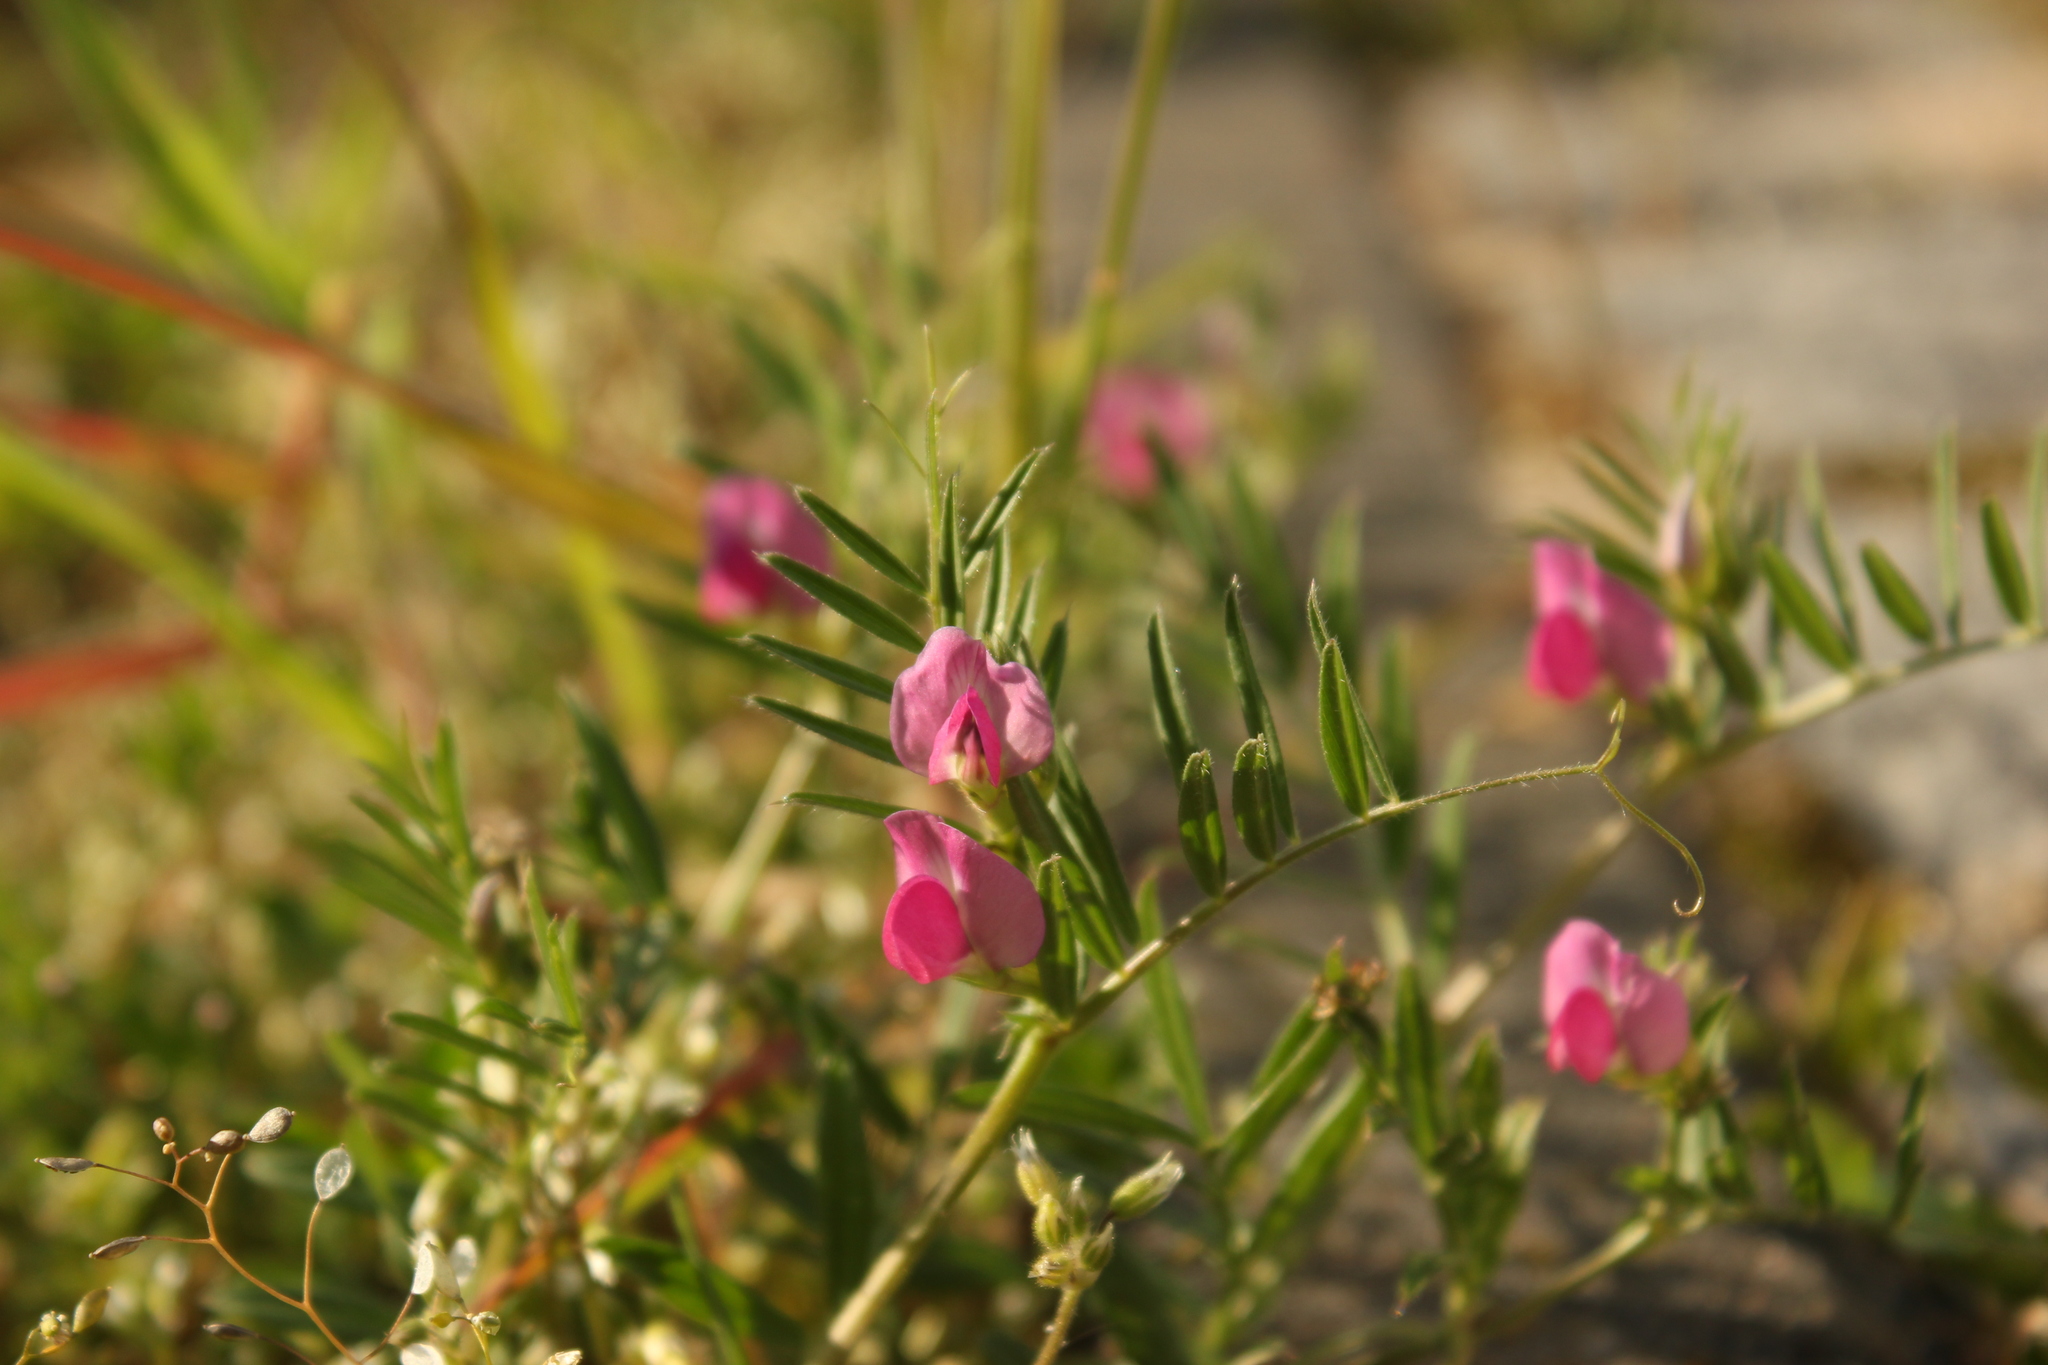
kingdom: Plantae
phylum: Tracheophyta
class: Magnoliopsida
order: Fabales
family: Fabaceae
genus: Vicia
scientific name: Vicia sativa
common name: Garden vetch
